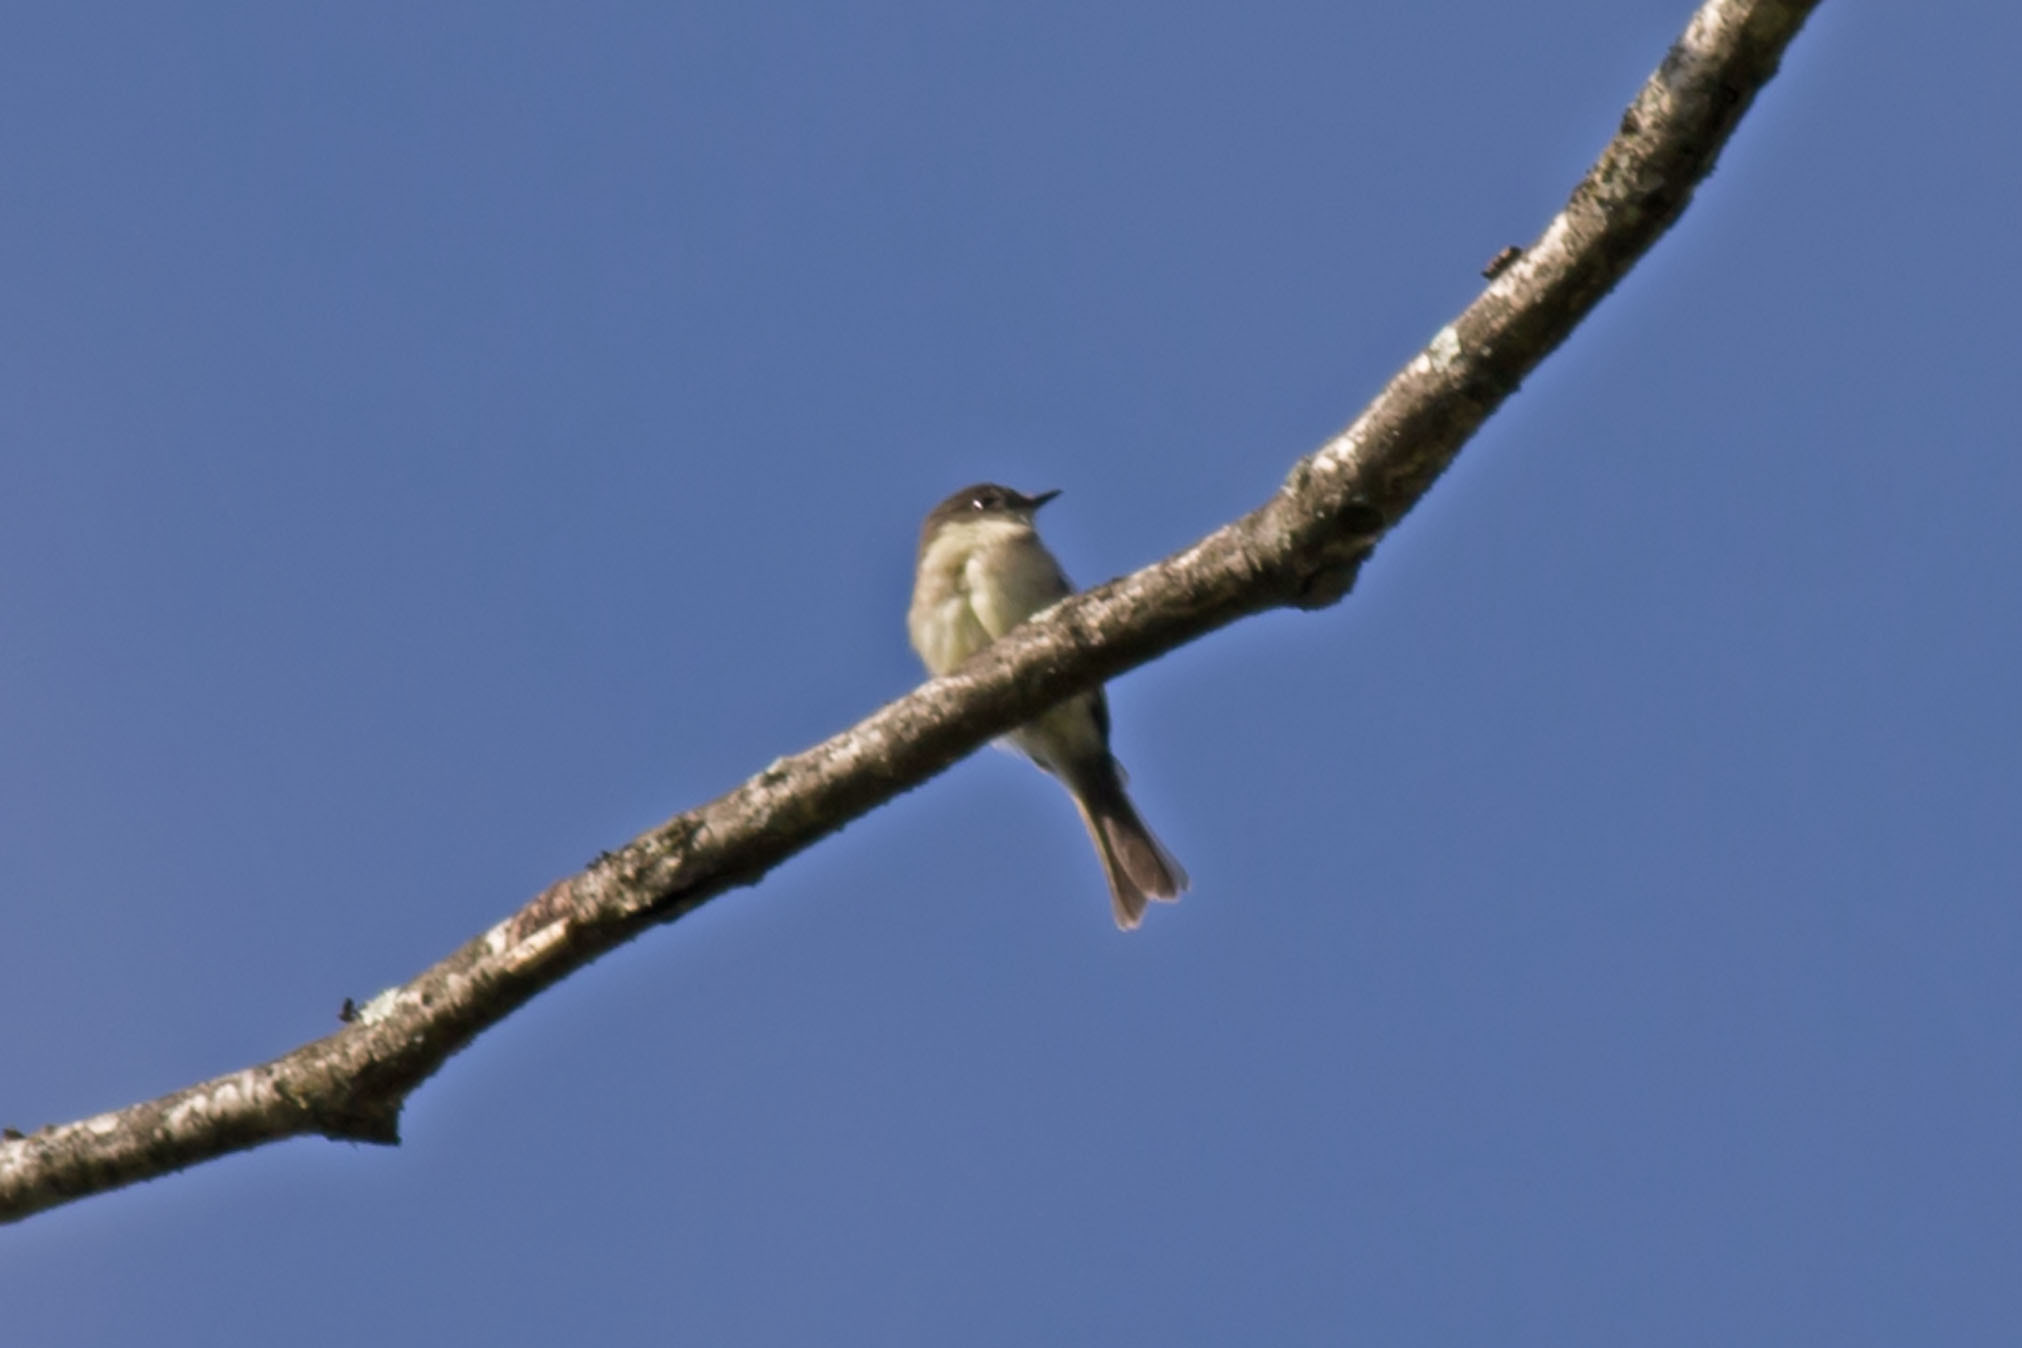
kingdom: Animalia
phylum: Chordata
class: Aves
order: Passeriformes
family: Tyrannidae
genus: Sayornis
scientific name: Sayornis phoebe
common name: Eastern phoebe
